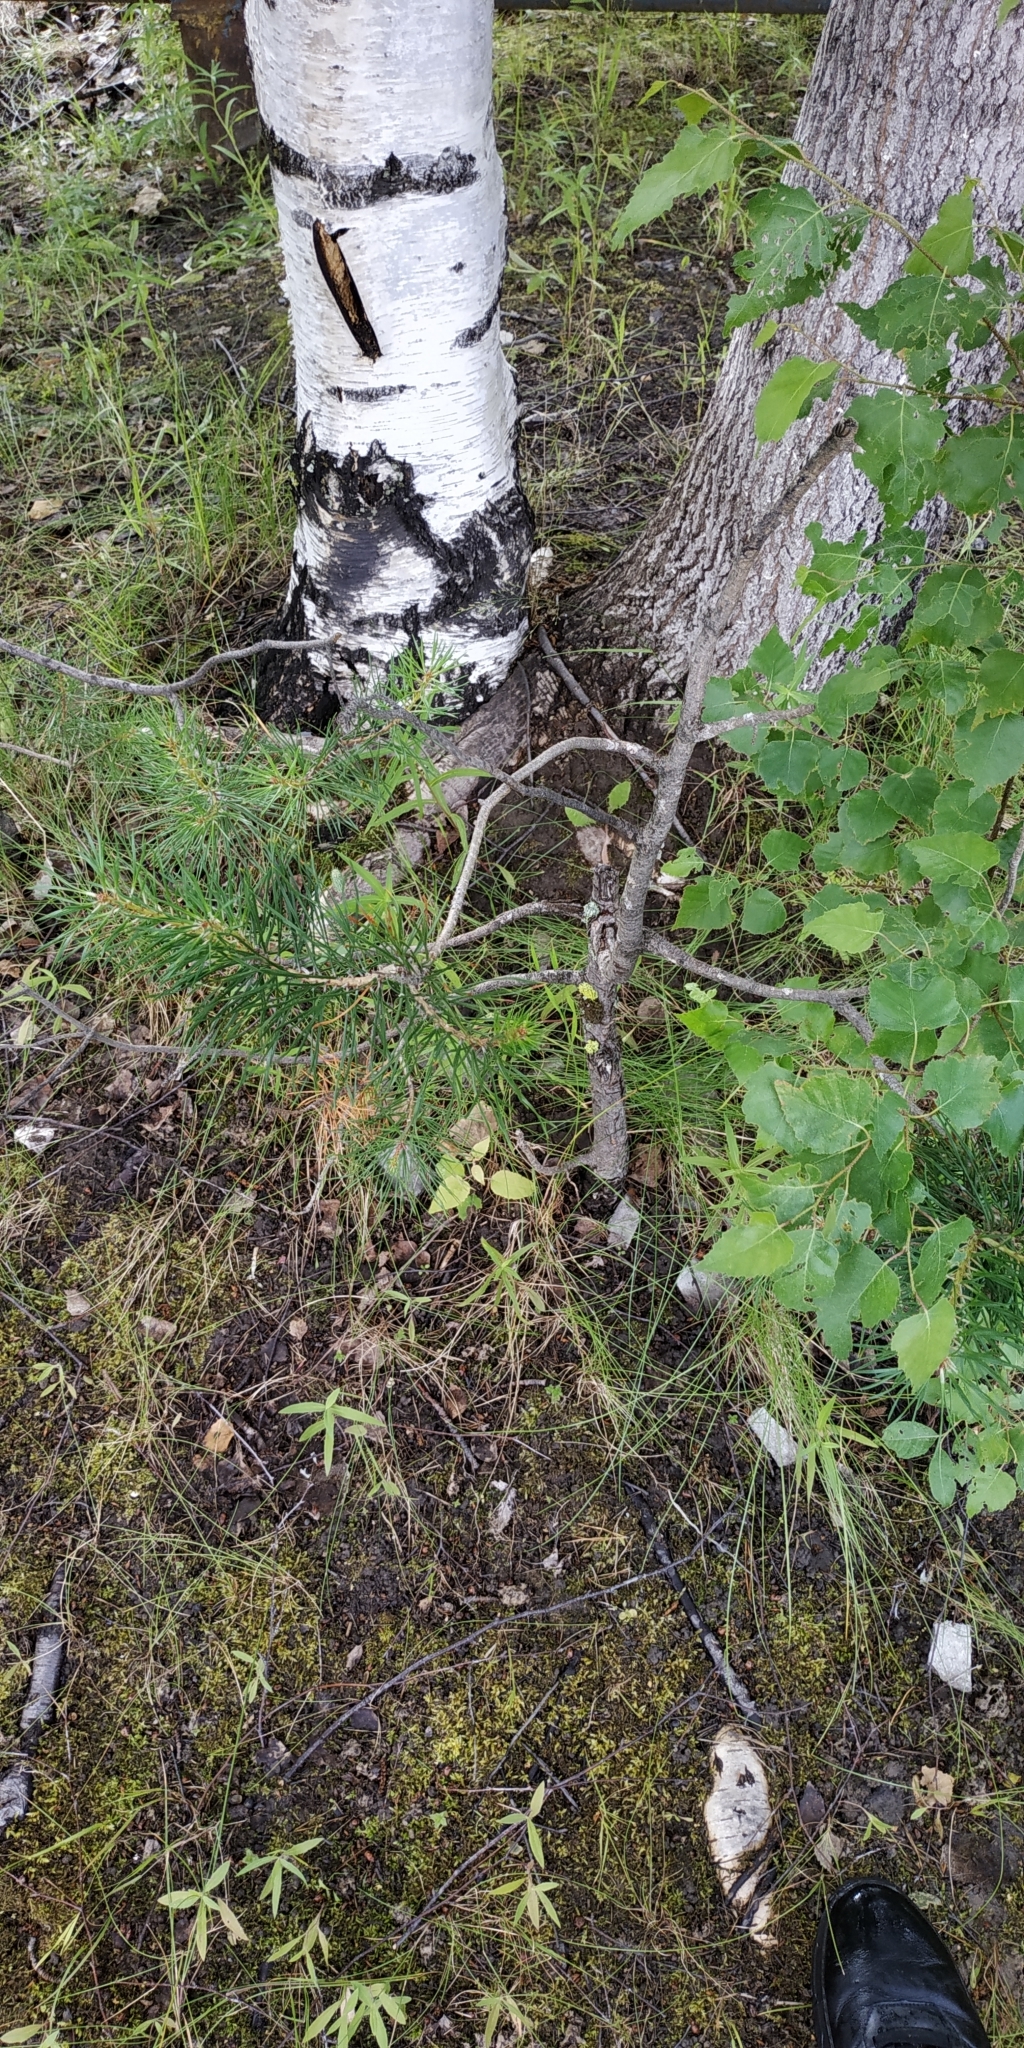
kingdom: Plantae
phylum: Tracheophyta
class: Pinopsida
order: Pinales
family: Pinaceae
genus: Pinus
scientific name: Pinus sylvestris
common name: Scots pine
